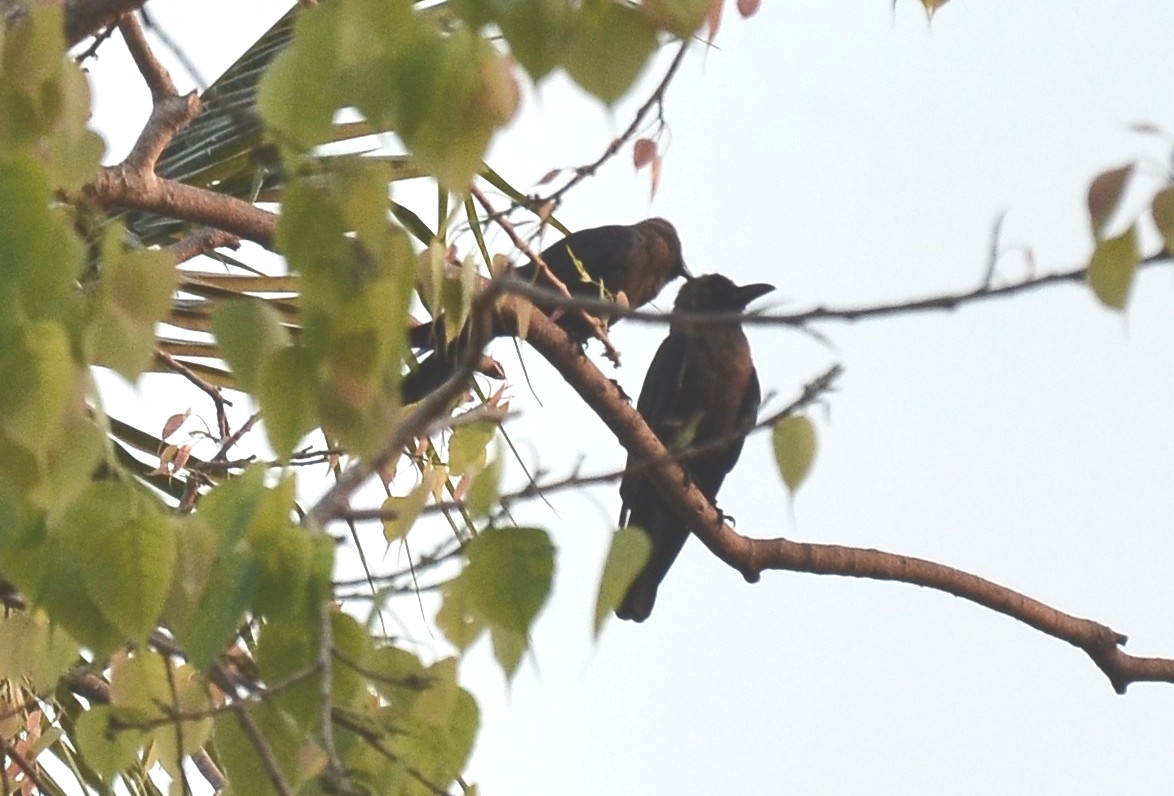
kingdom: Animalia
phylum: Chordata
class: Aves
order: Passeriformes
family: Corvidae
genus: Corvus
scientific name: Corvus splendens
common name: House crow
